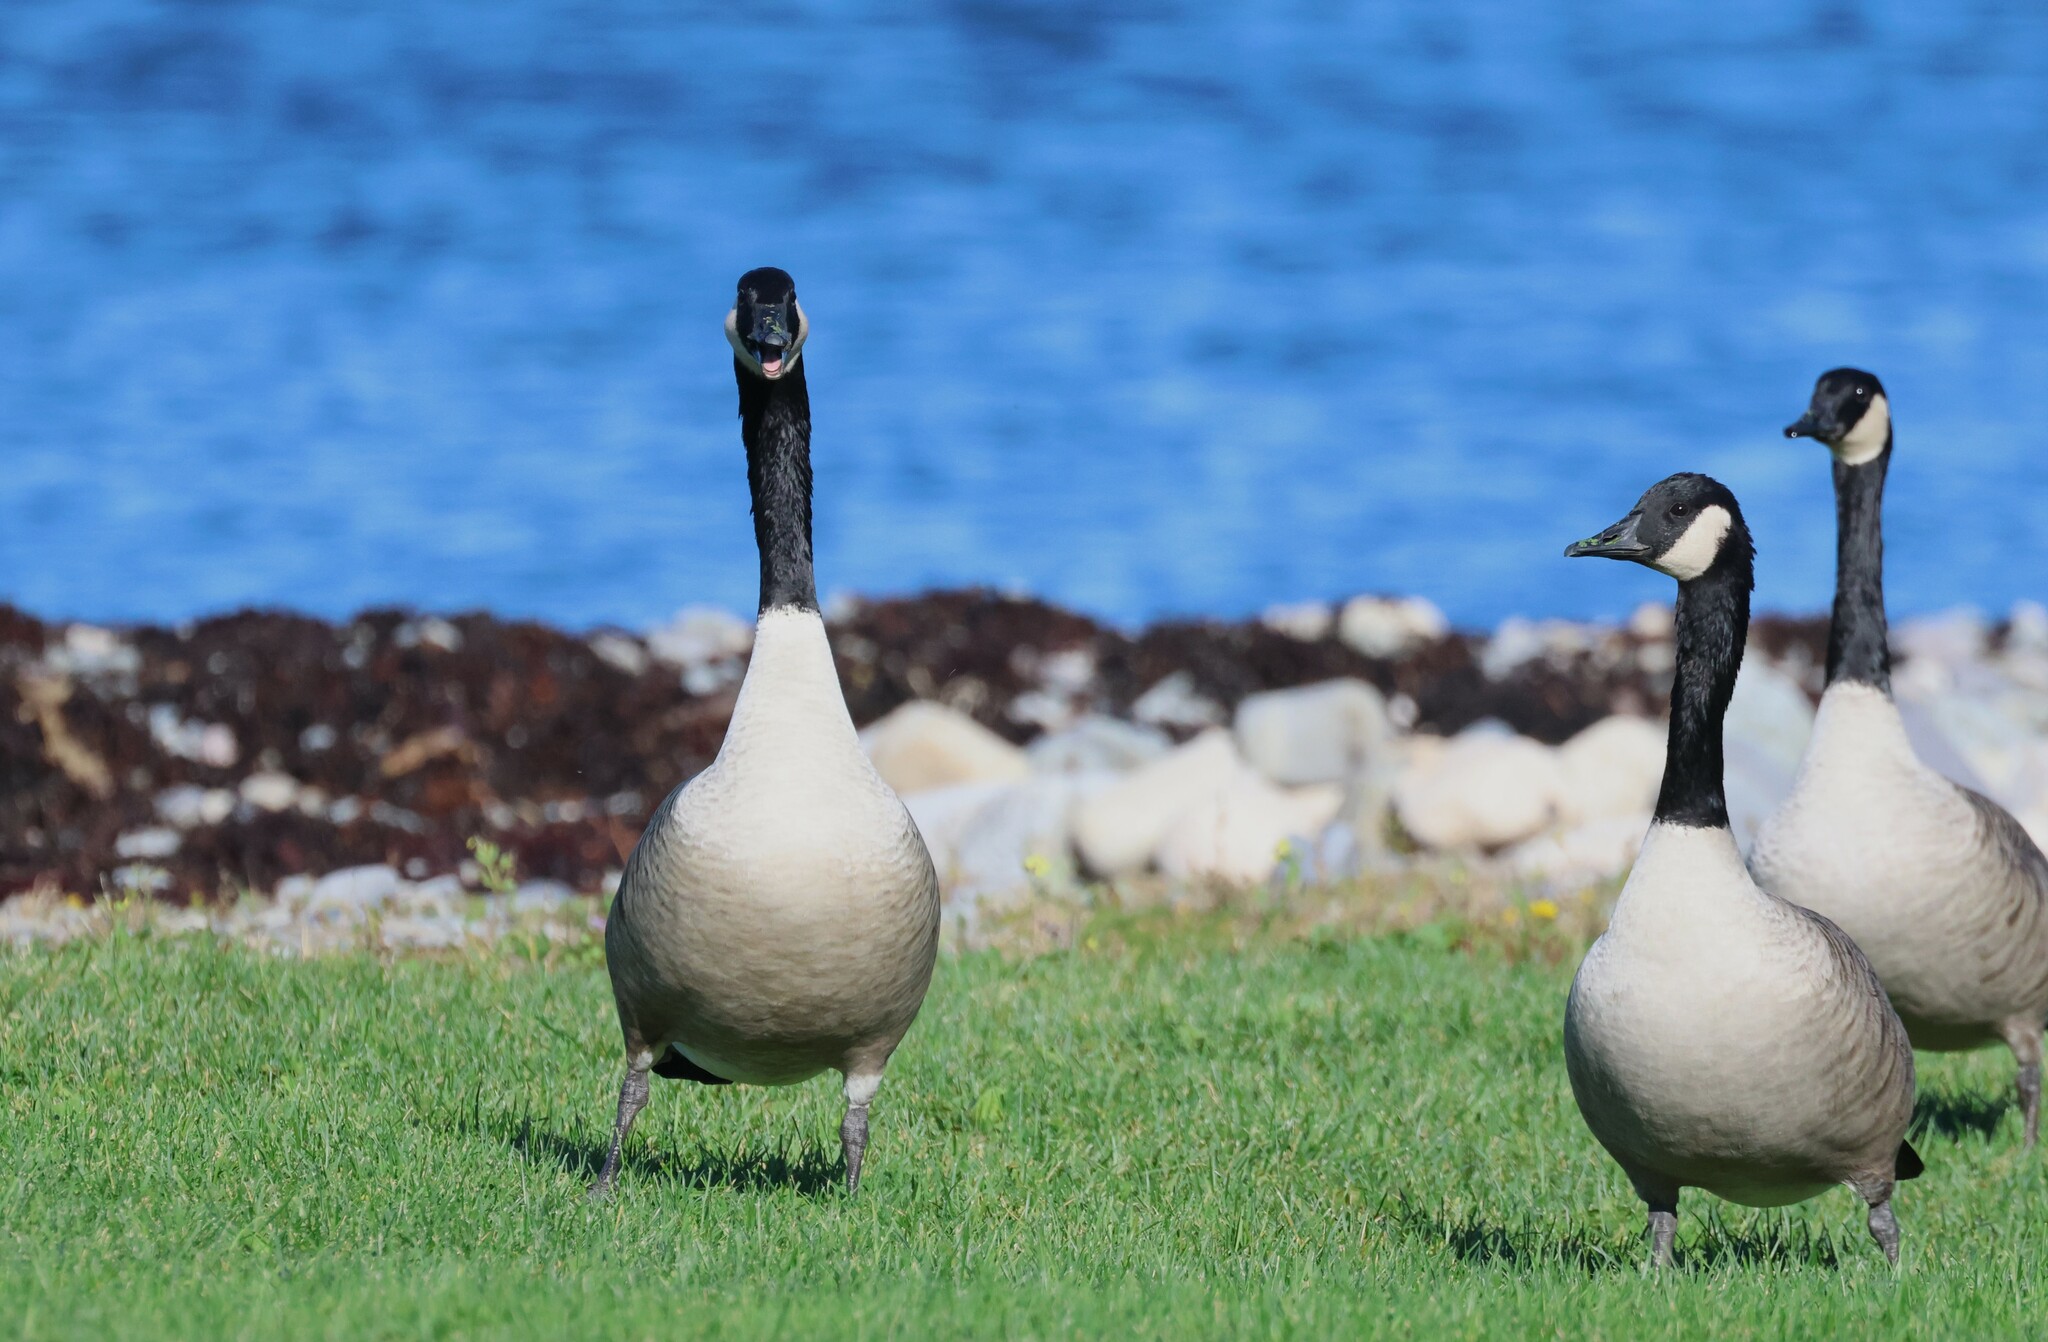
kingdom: Animalia
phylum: Chordata
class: Aves
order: Anseriformes
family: Anatidae
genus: Branta
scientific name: Branta canadensis
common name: Canada goose
